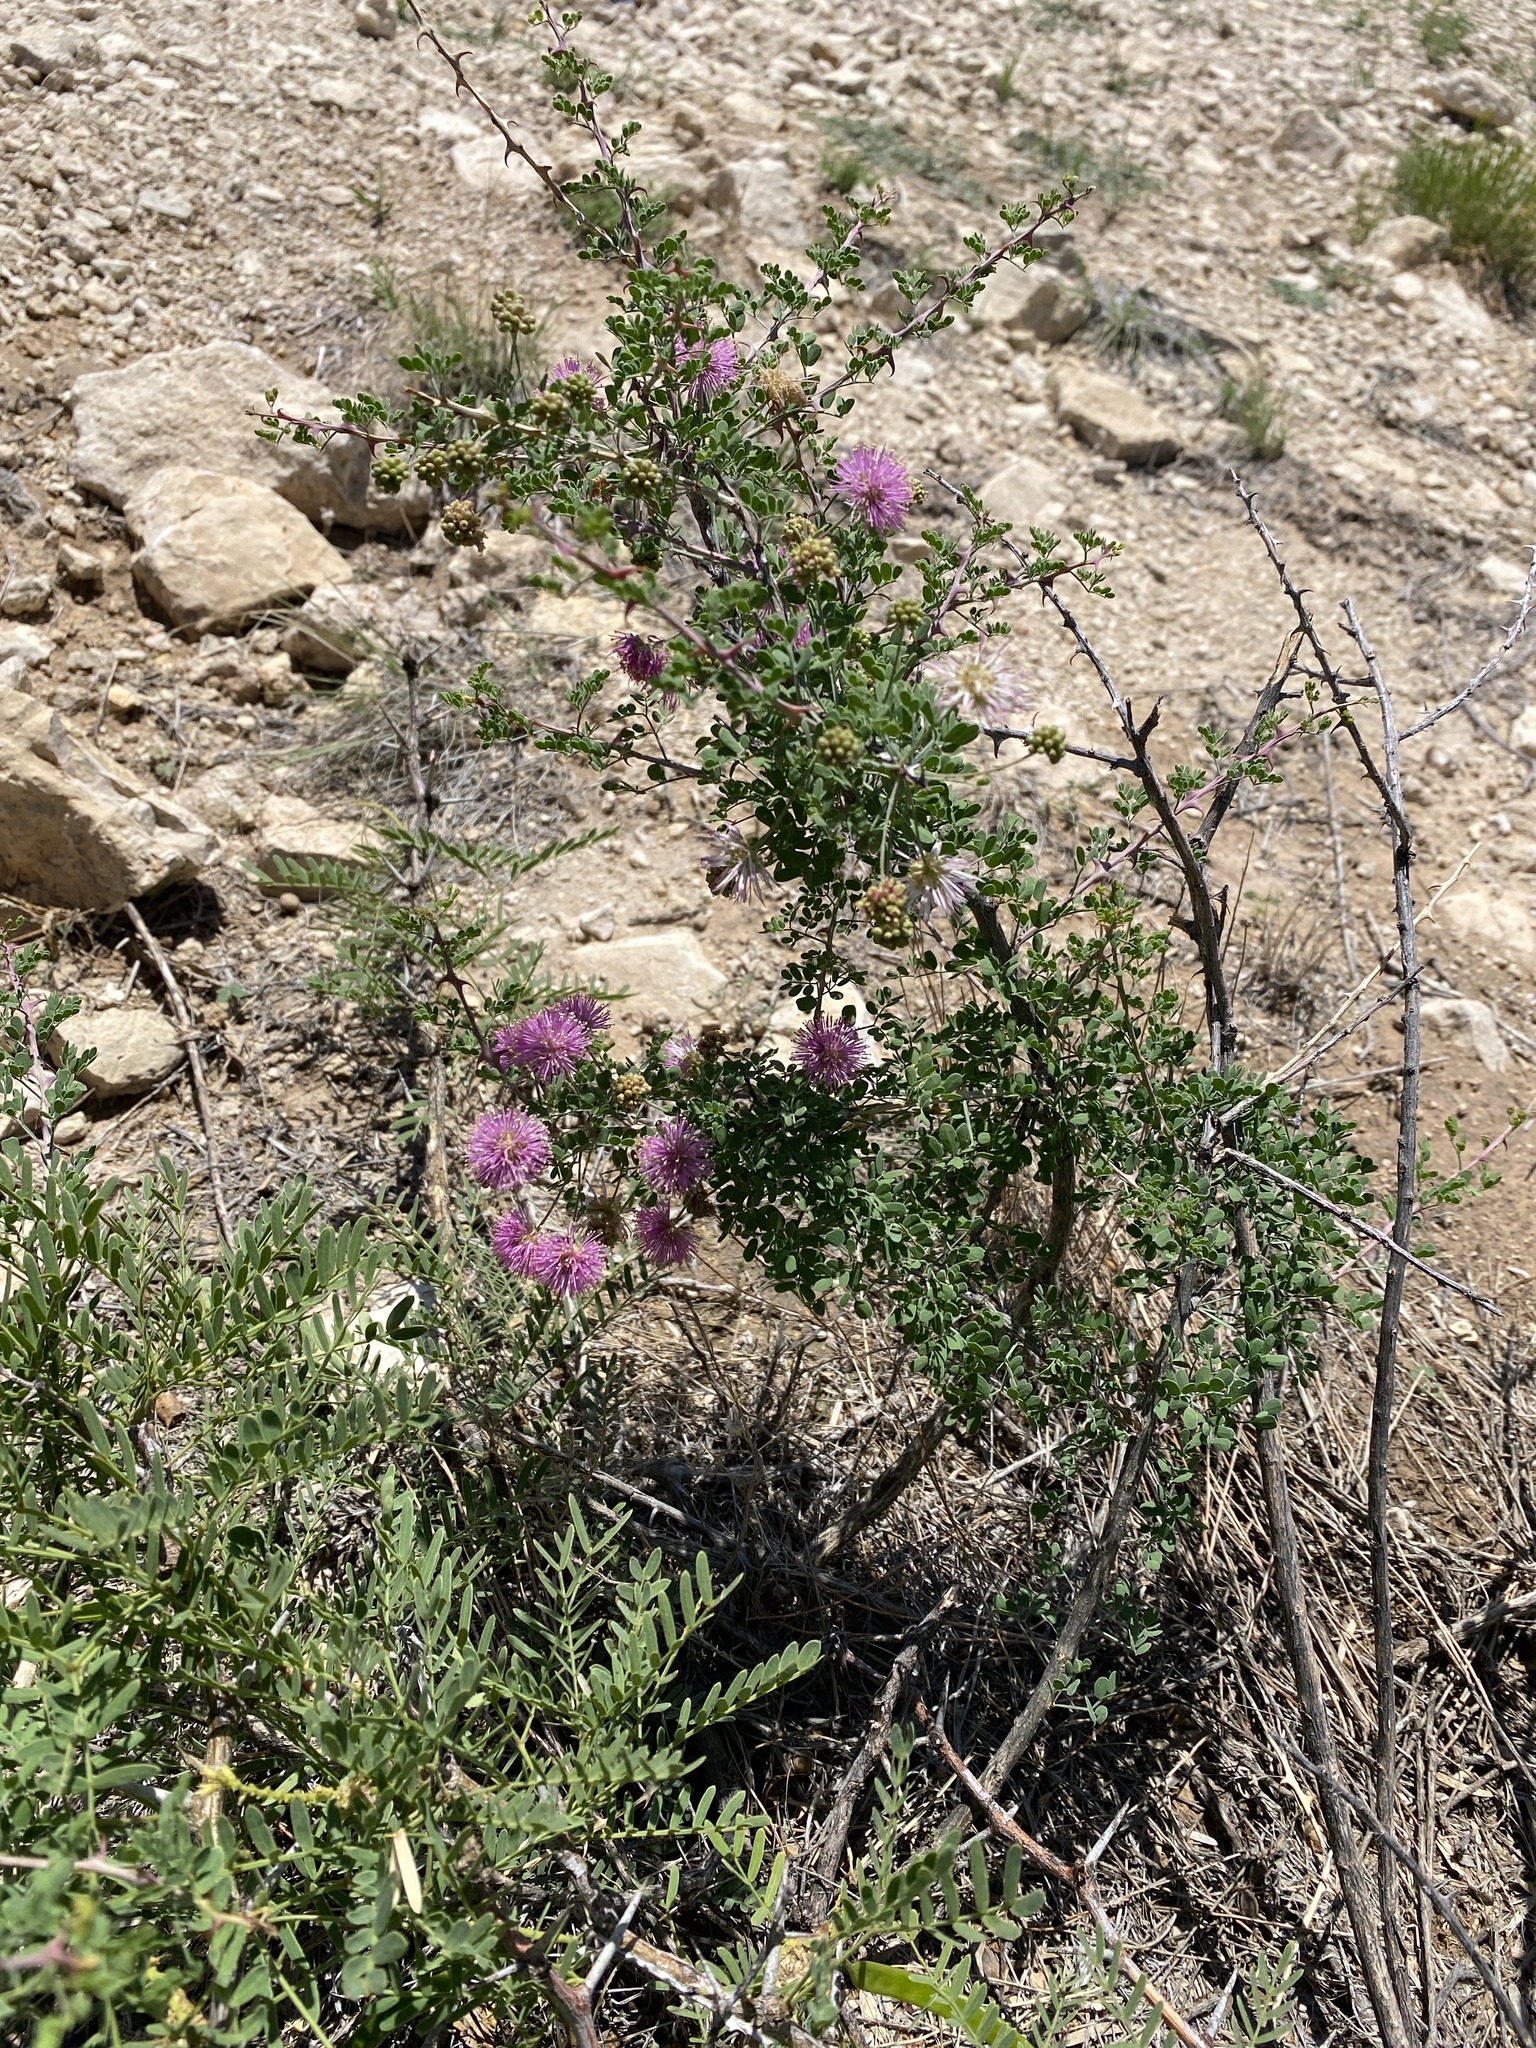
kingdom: Plantae
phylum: Tracheophyta
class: Magnoliopsida
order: Fabales
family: Fabaceae
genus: Mimosa
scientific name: Mimosa borealis
